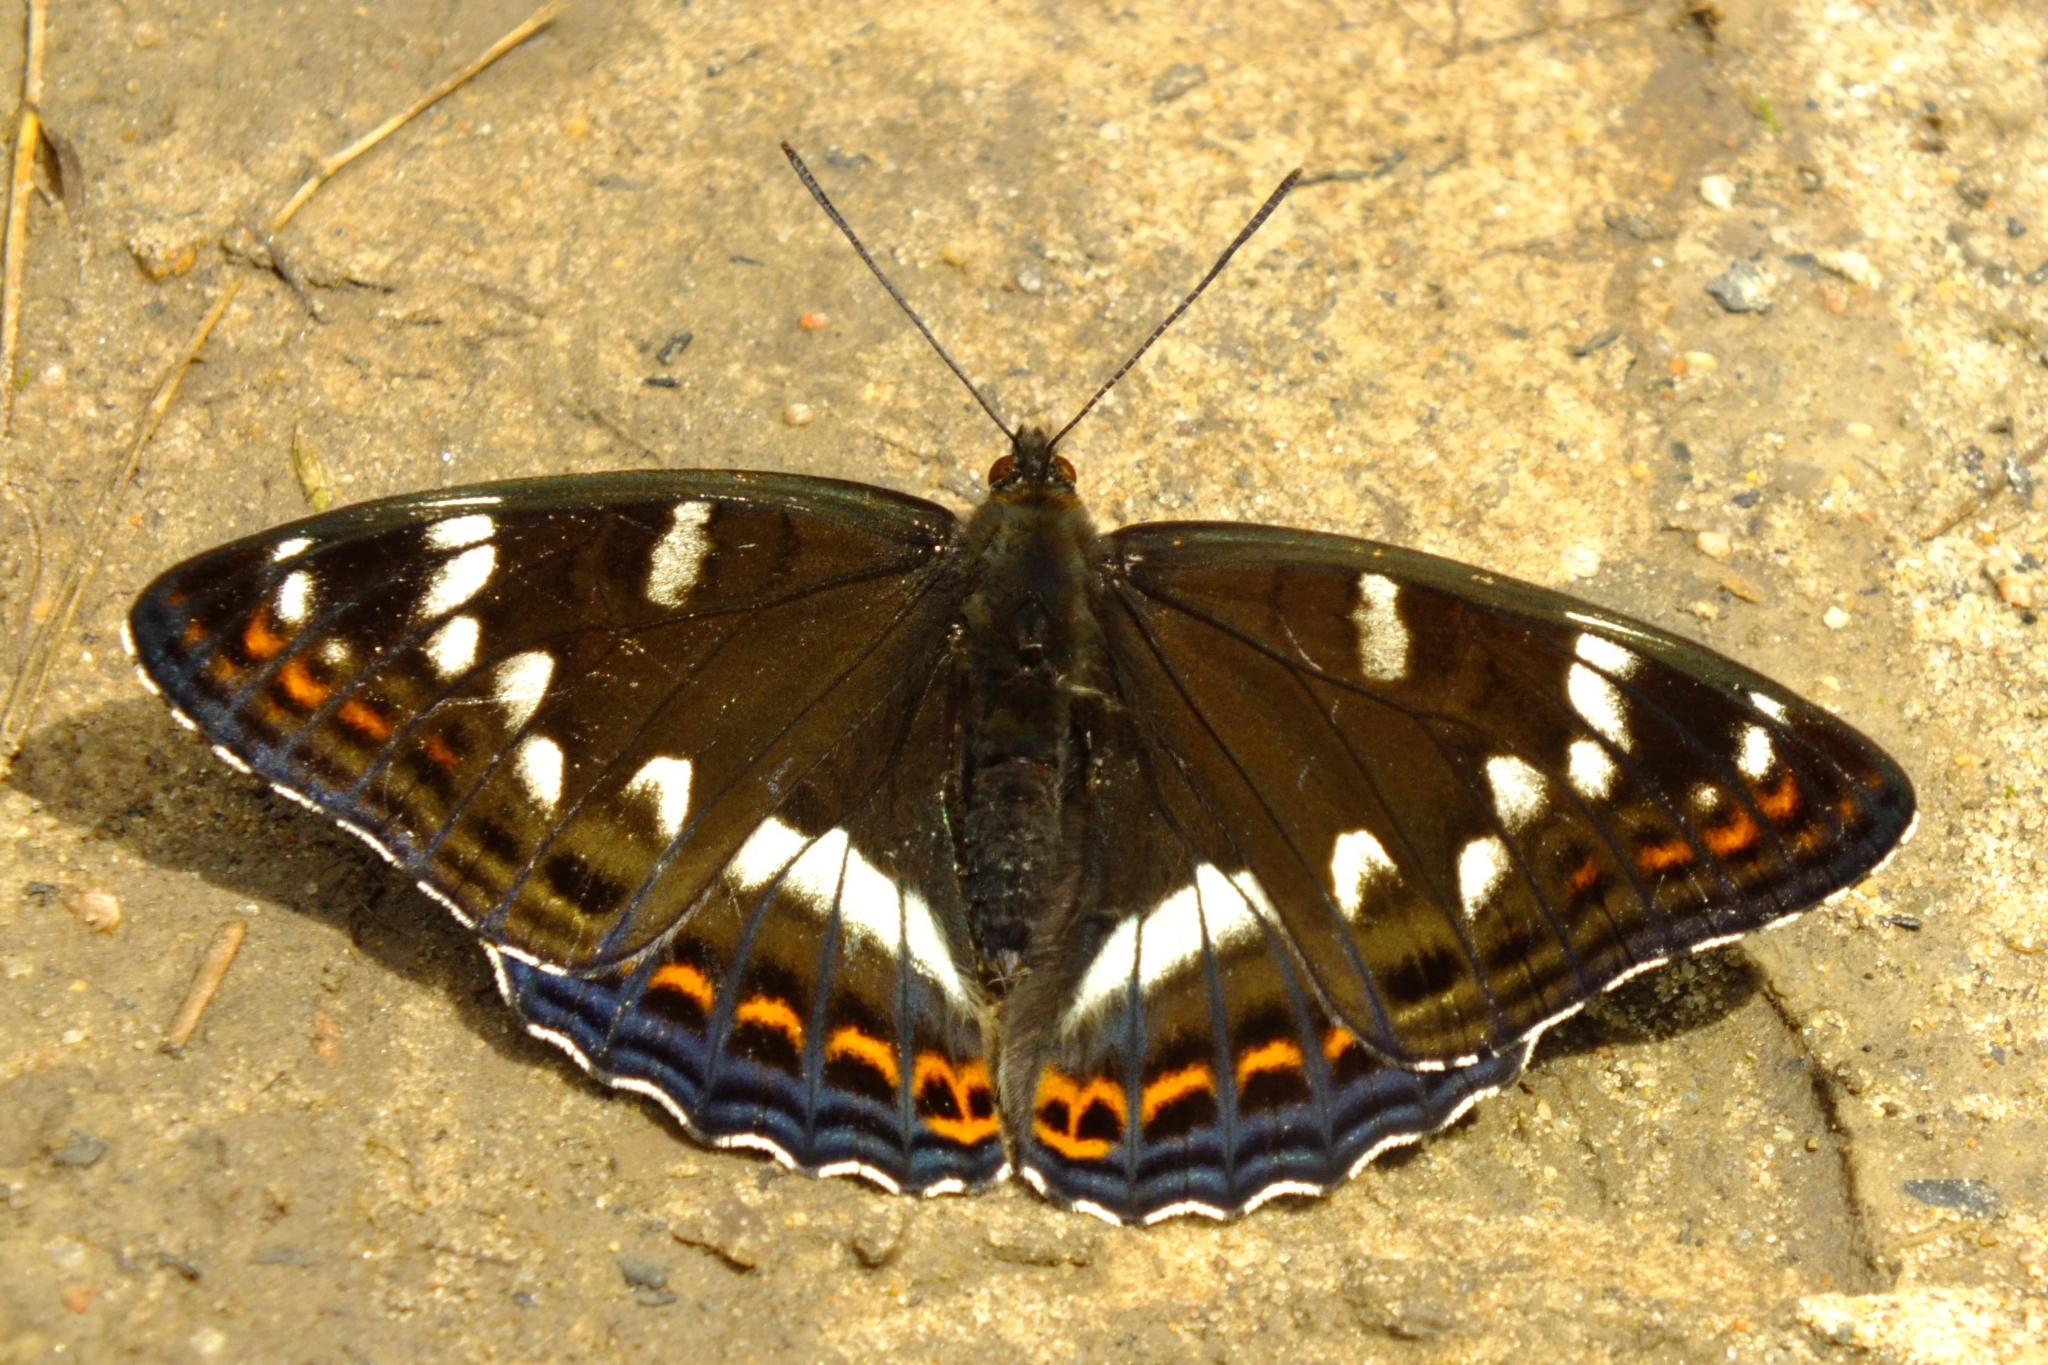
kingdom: Animalia
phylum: Arthropoda
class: Insecta
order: Lepidoptera
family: Nymphalidae
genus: Limenitis
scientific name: Limenitis populi
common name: Poplar admiral
